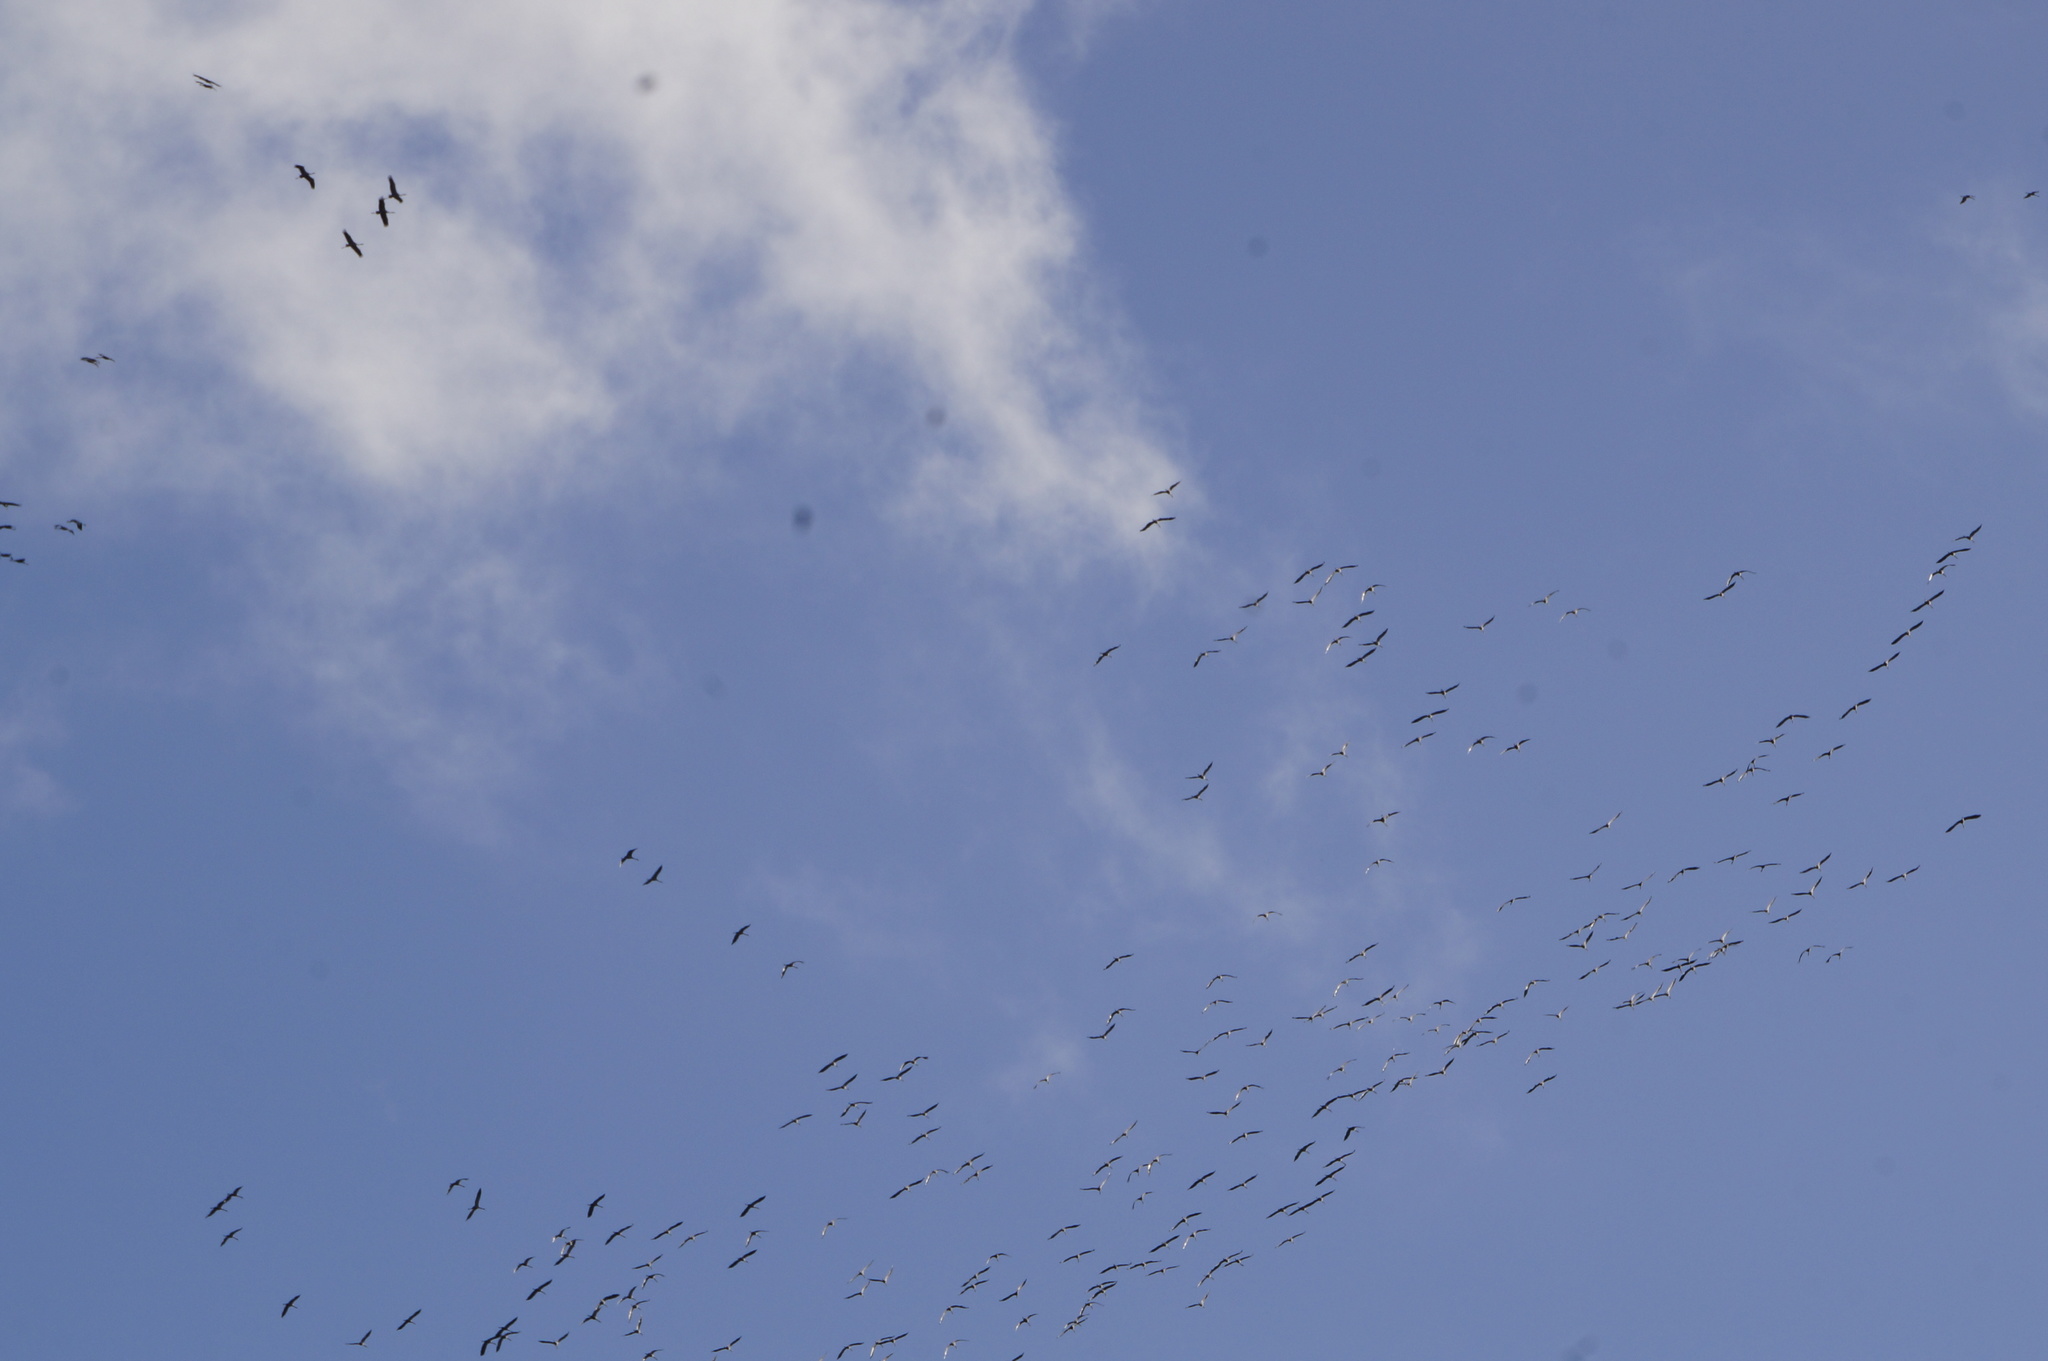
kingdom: Animalia
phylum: Chordata
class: Aves
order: Gruiformes
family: Gruidae
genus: Grus
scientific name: Grus grus
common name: Common crane
